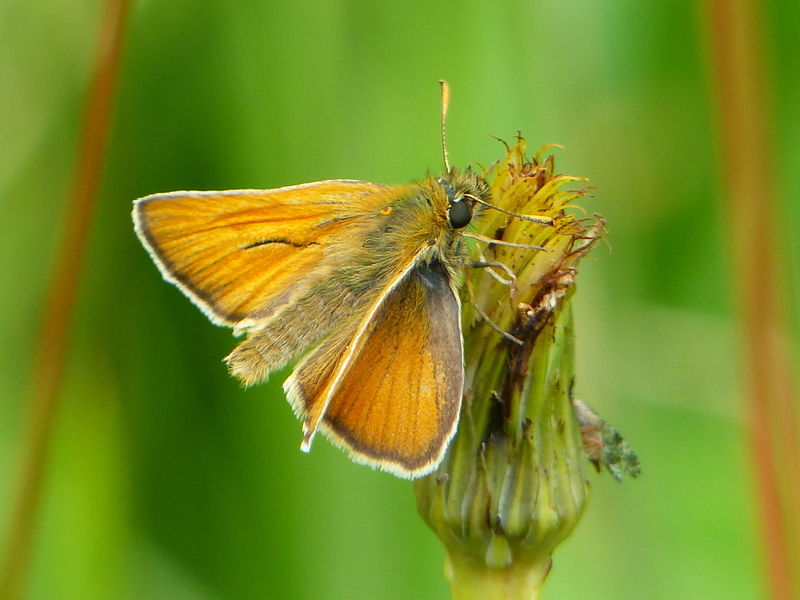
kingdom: Animalia
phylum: Arthropoda
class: Insecta
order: Lepidoptera
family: Hesperiidae
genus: Thymelicus
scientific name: Thymelicus sylvestris
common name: Small skipper
